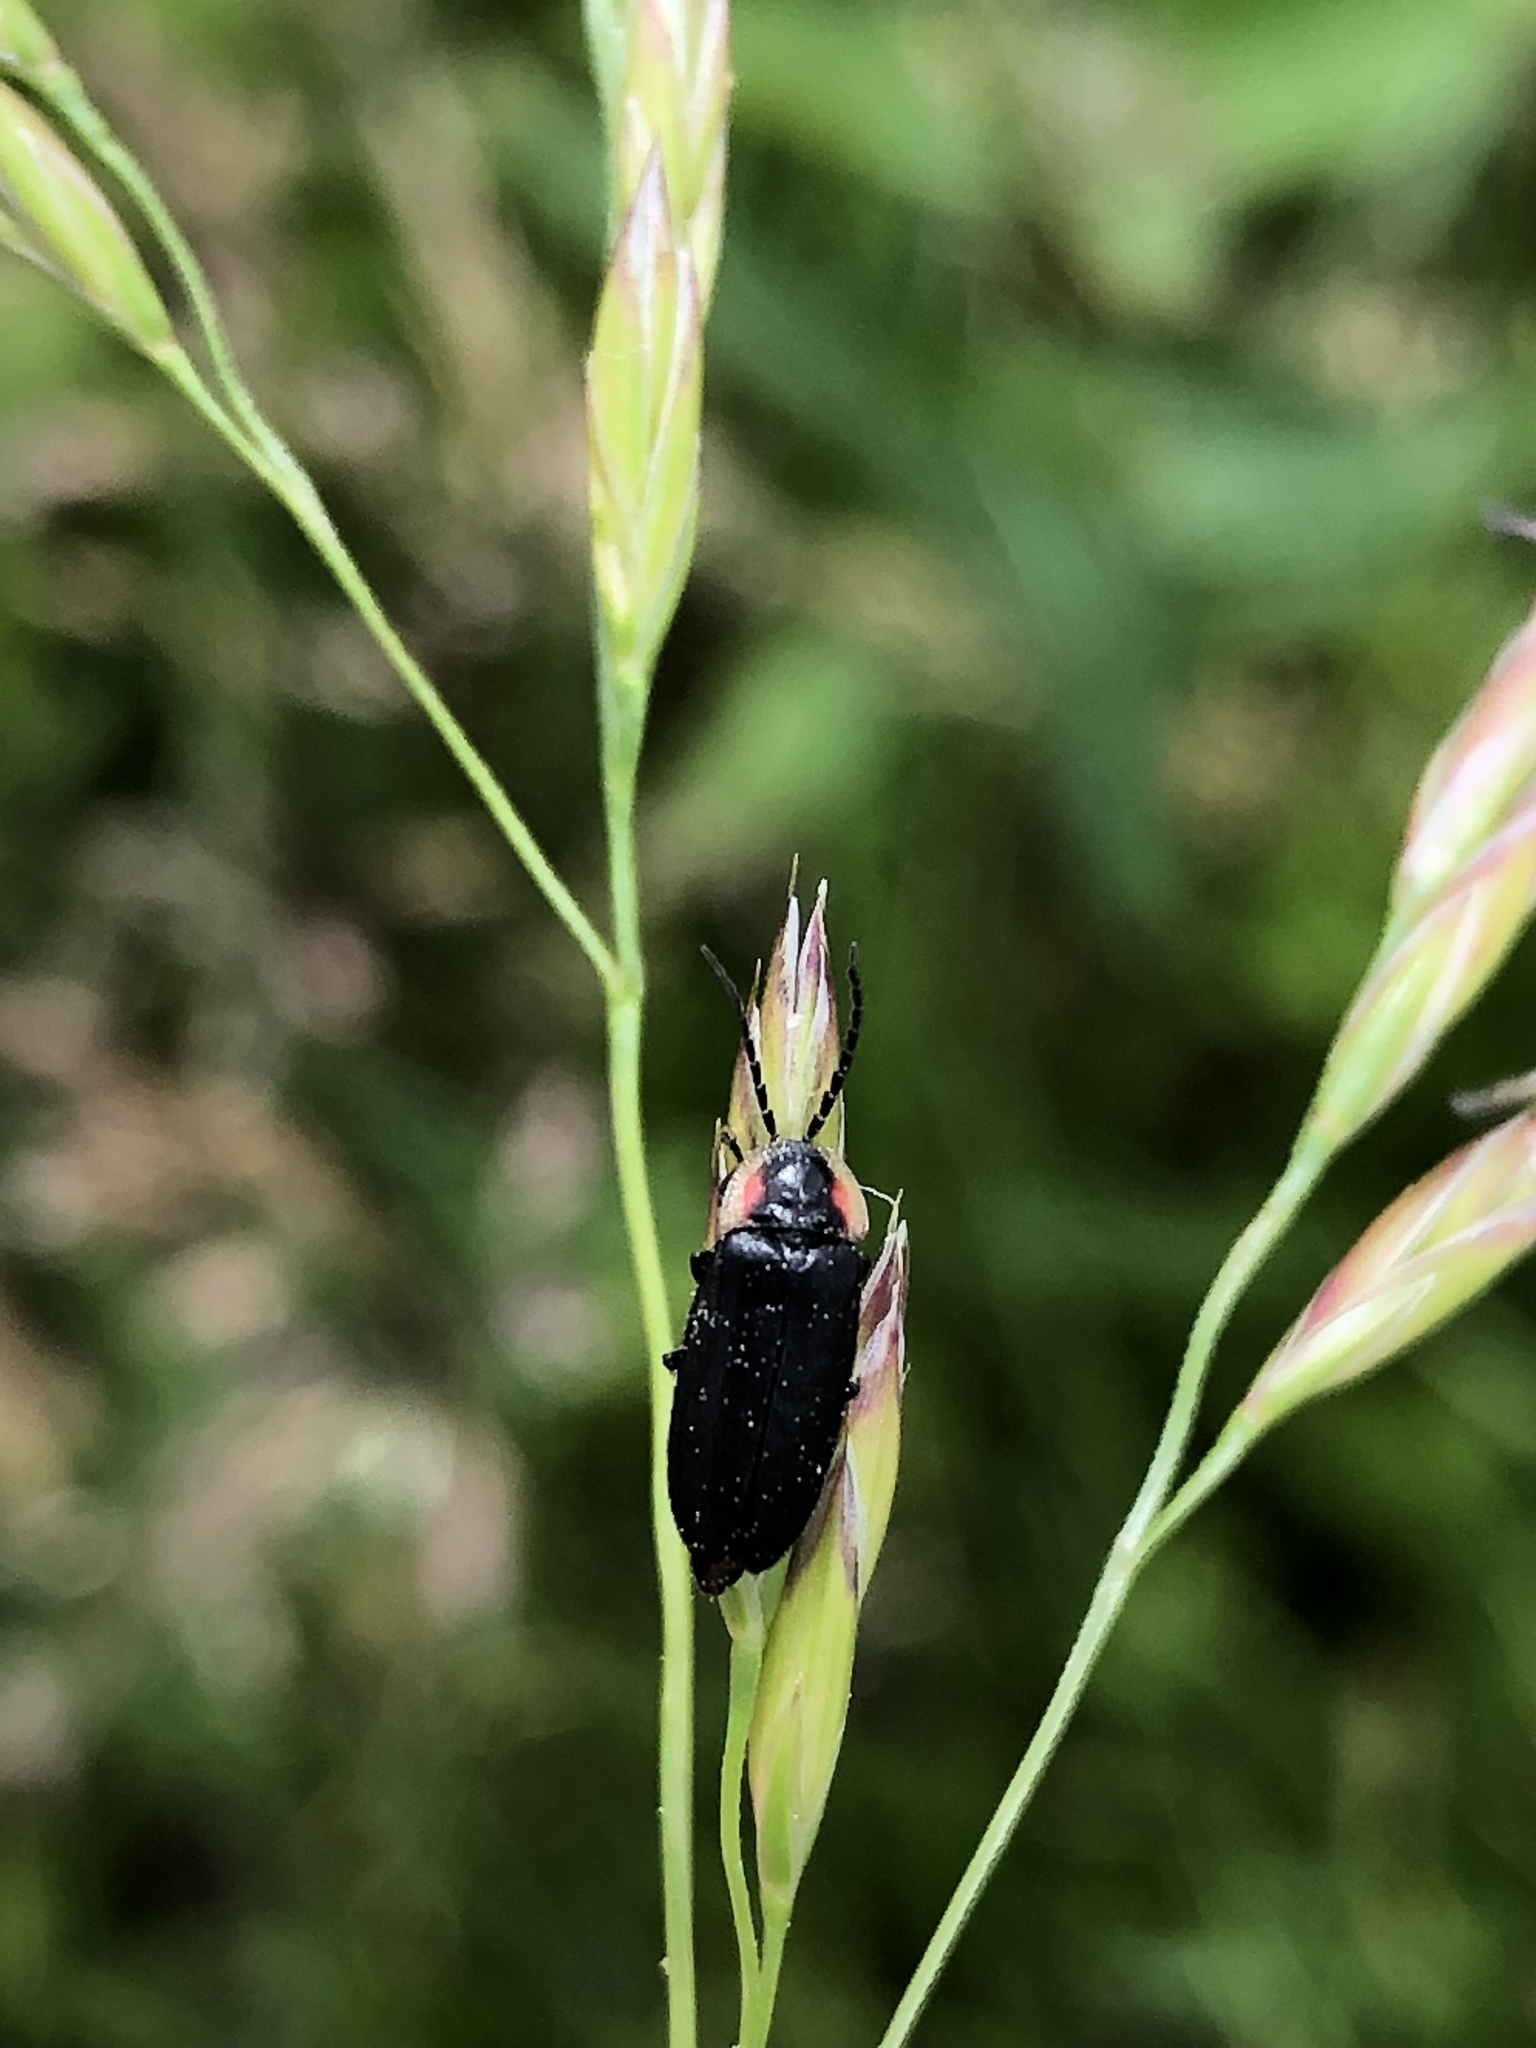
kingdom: Animalia
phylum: Arthropoda
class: Insecta
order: Coleoptera
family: Lampyridae
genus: Pyropyga
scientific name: Pyropyga decipiens
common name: Sneaky elf
